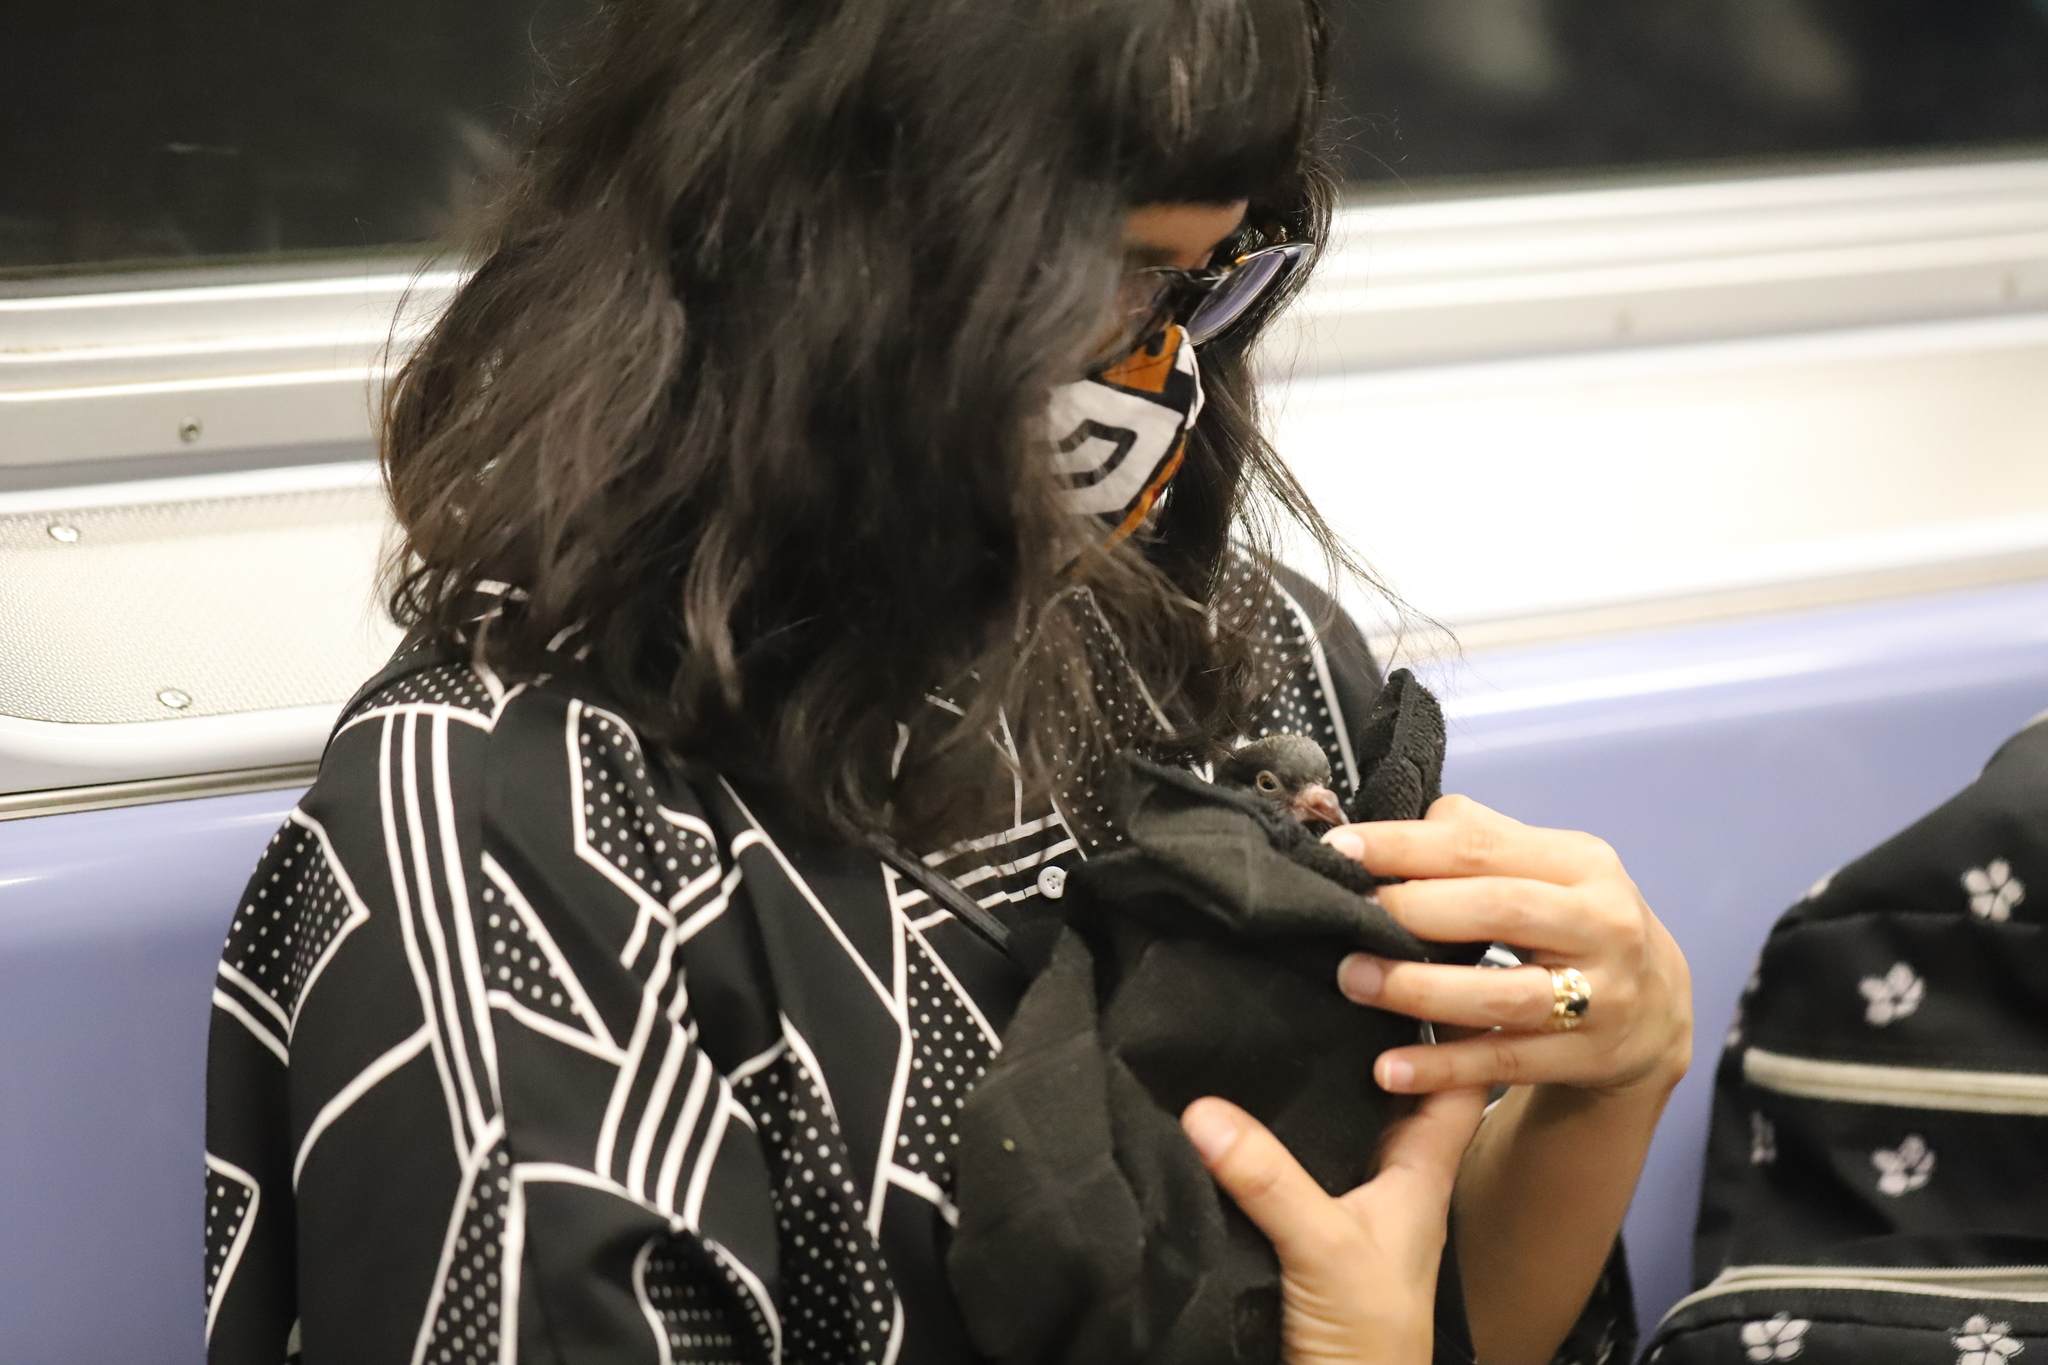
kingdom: Animalia
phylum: Chordata
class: Aves
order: Columbiformes
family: Columbidae
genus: Columba
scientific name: Columba livia
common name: Rock pigeon
